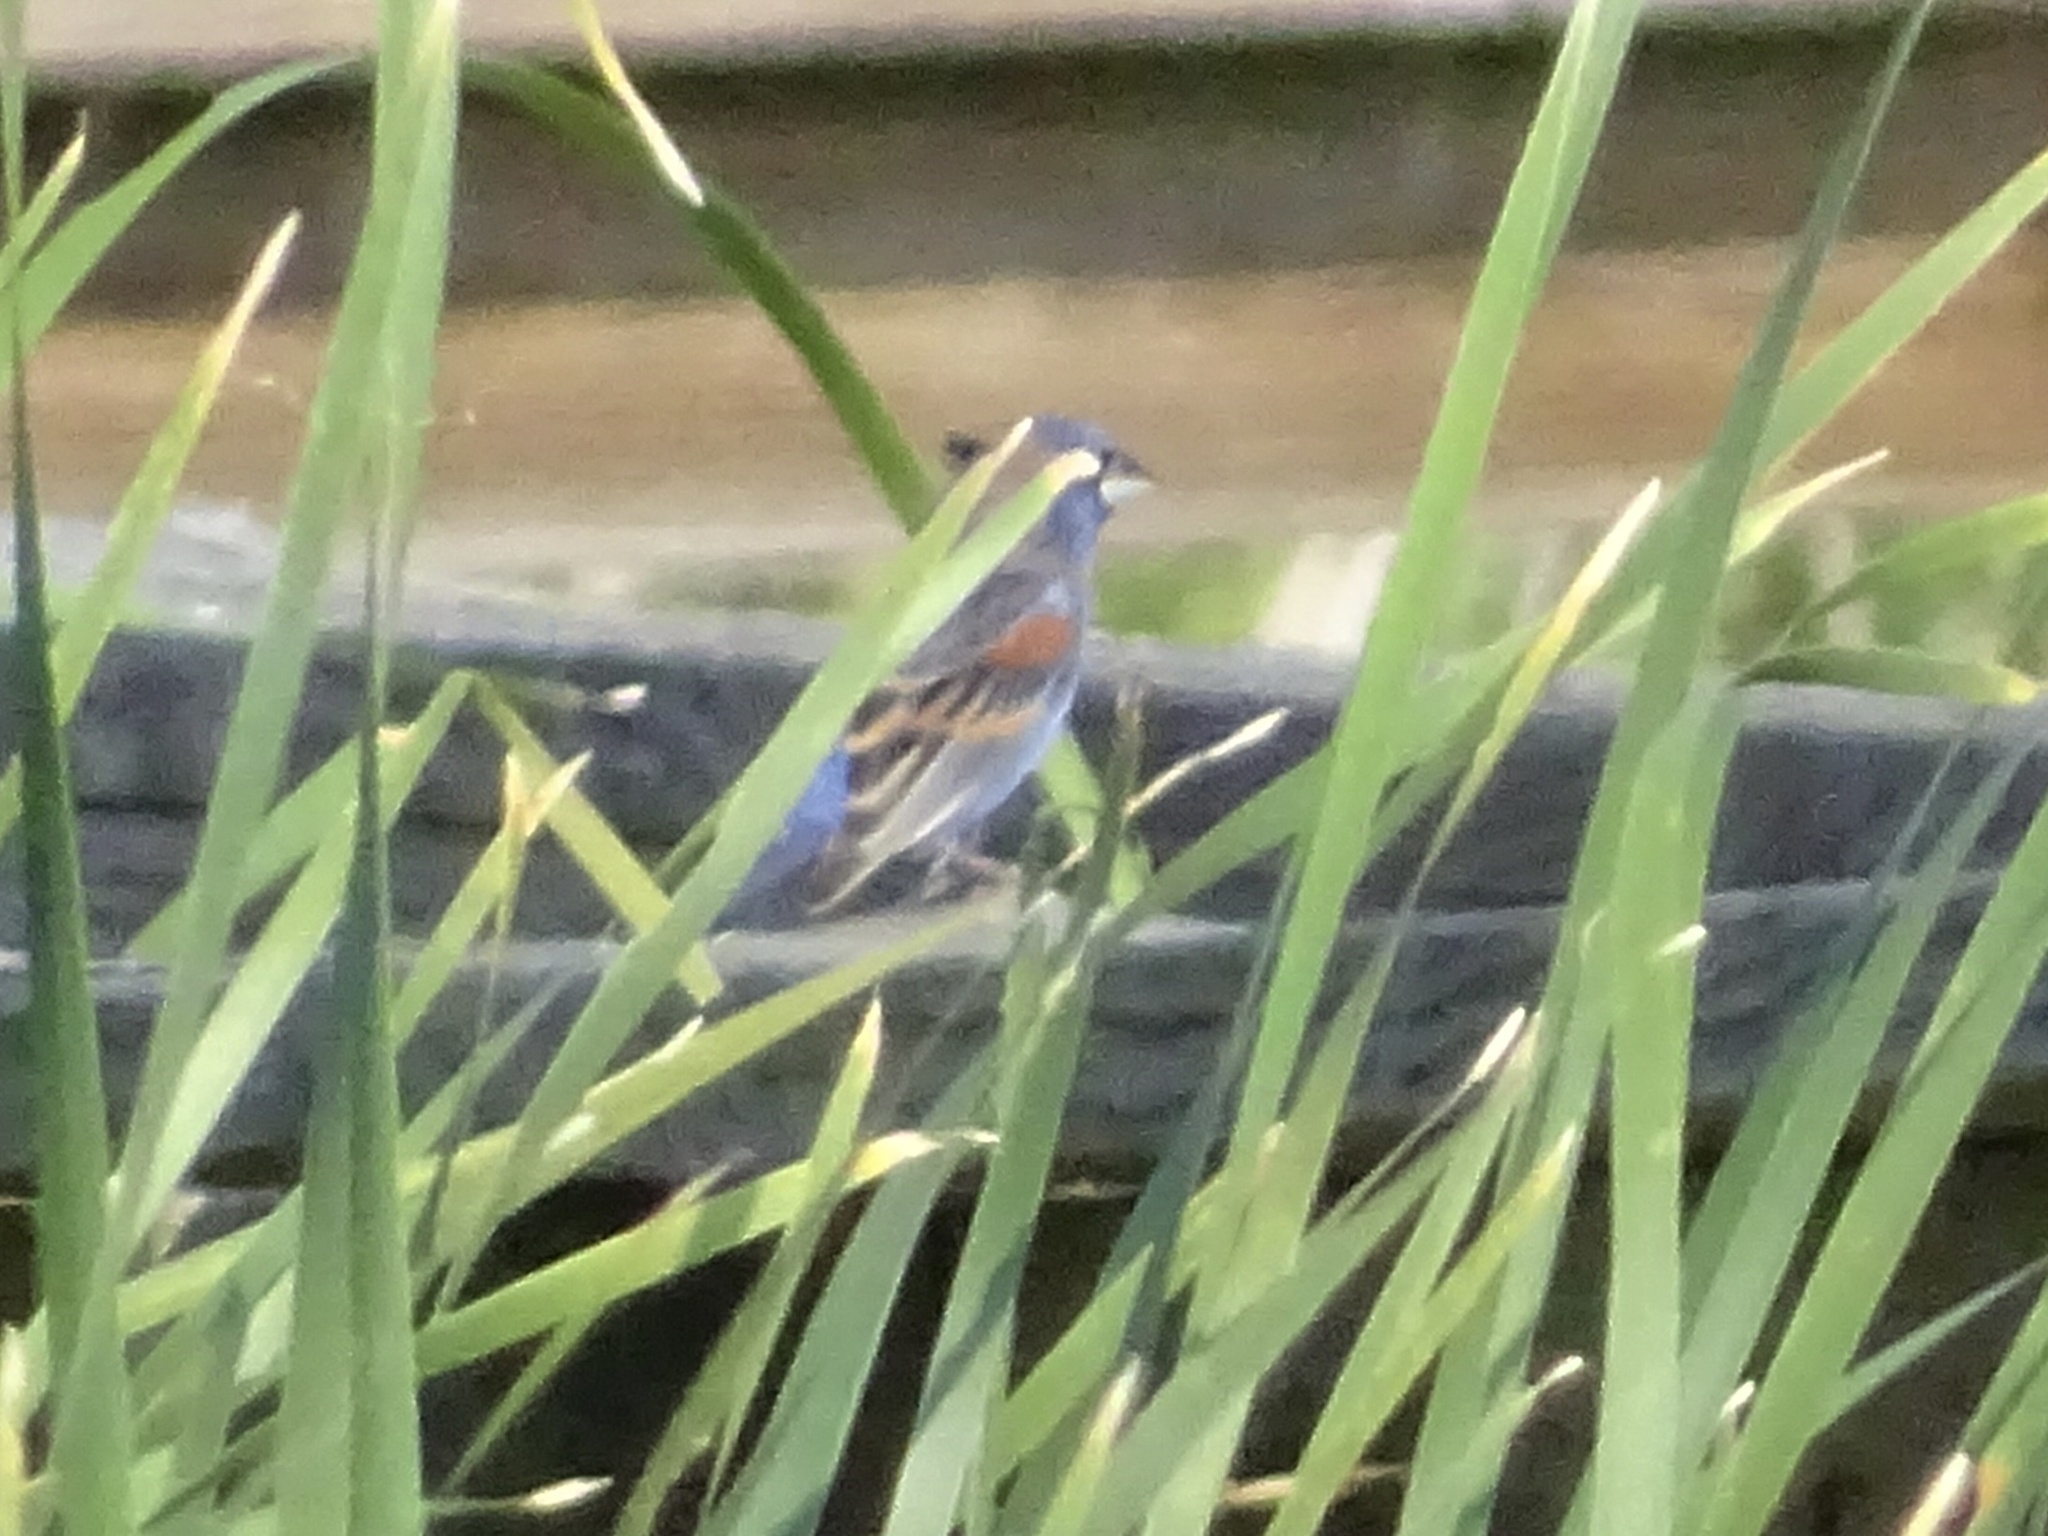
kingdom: Animalia
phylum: Chordata
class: Aves
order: Passeriformes
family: Cardinalidae
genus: Passerina
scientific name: Passerina caerulea
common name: Blue grosbeak
